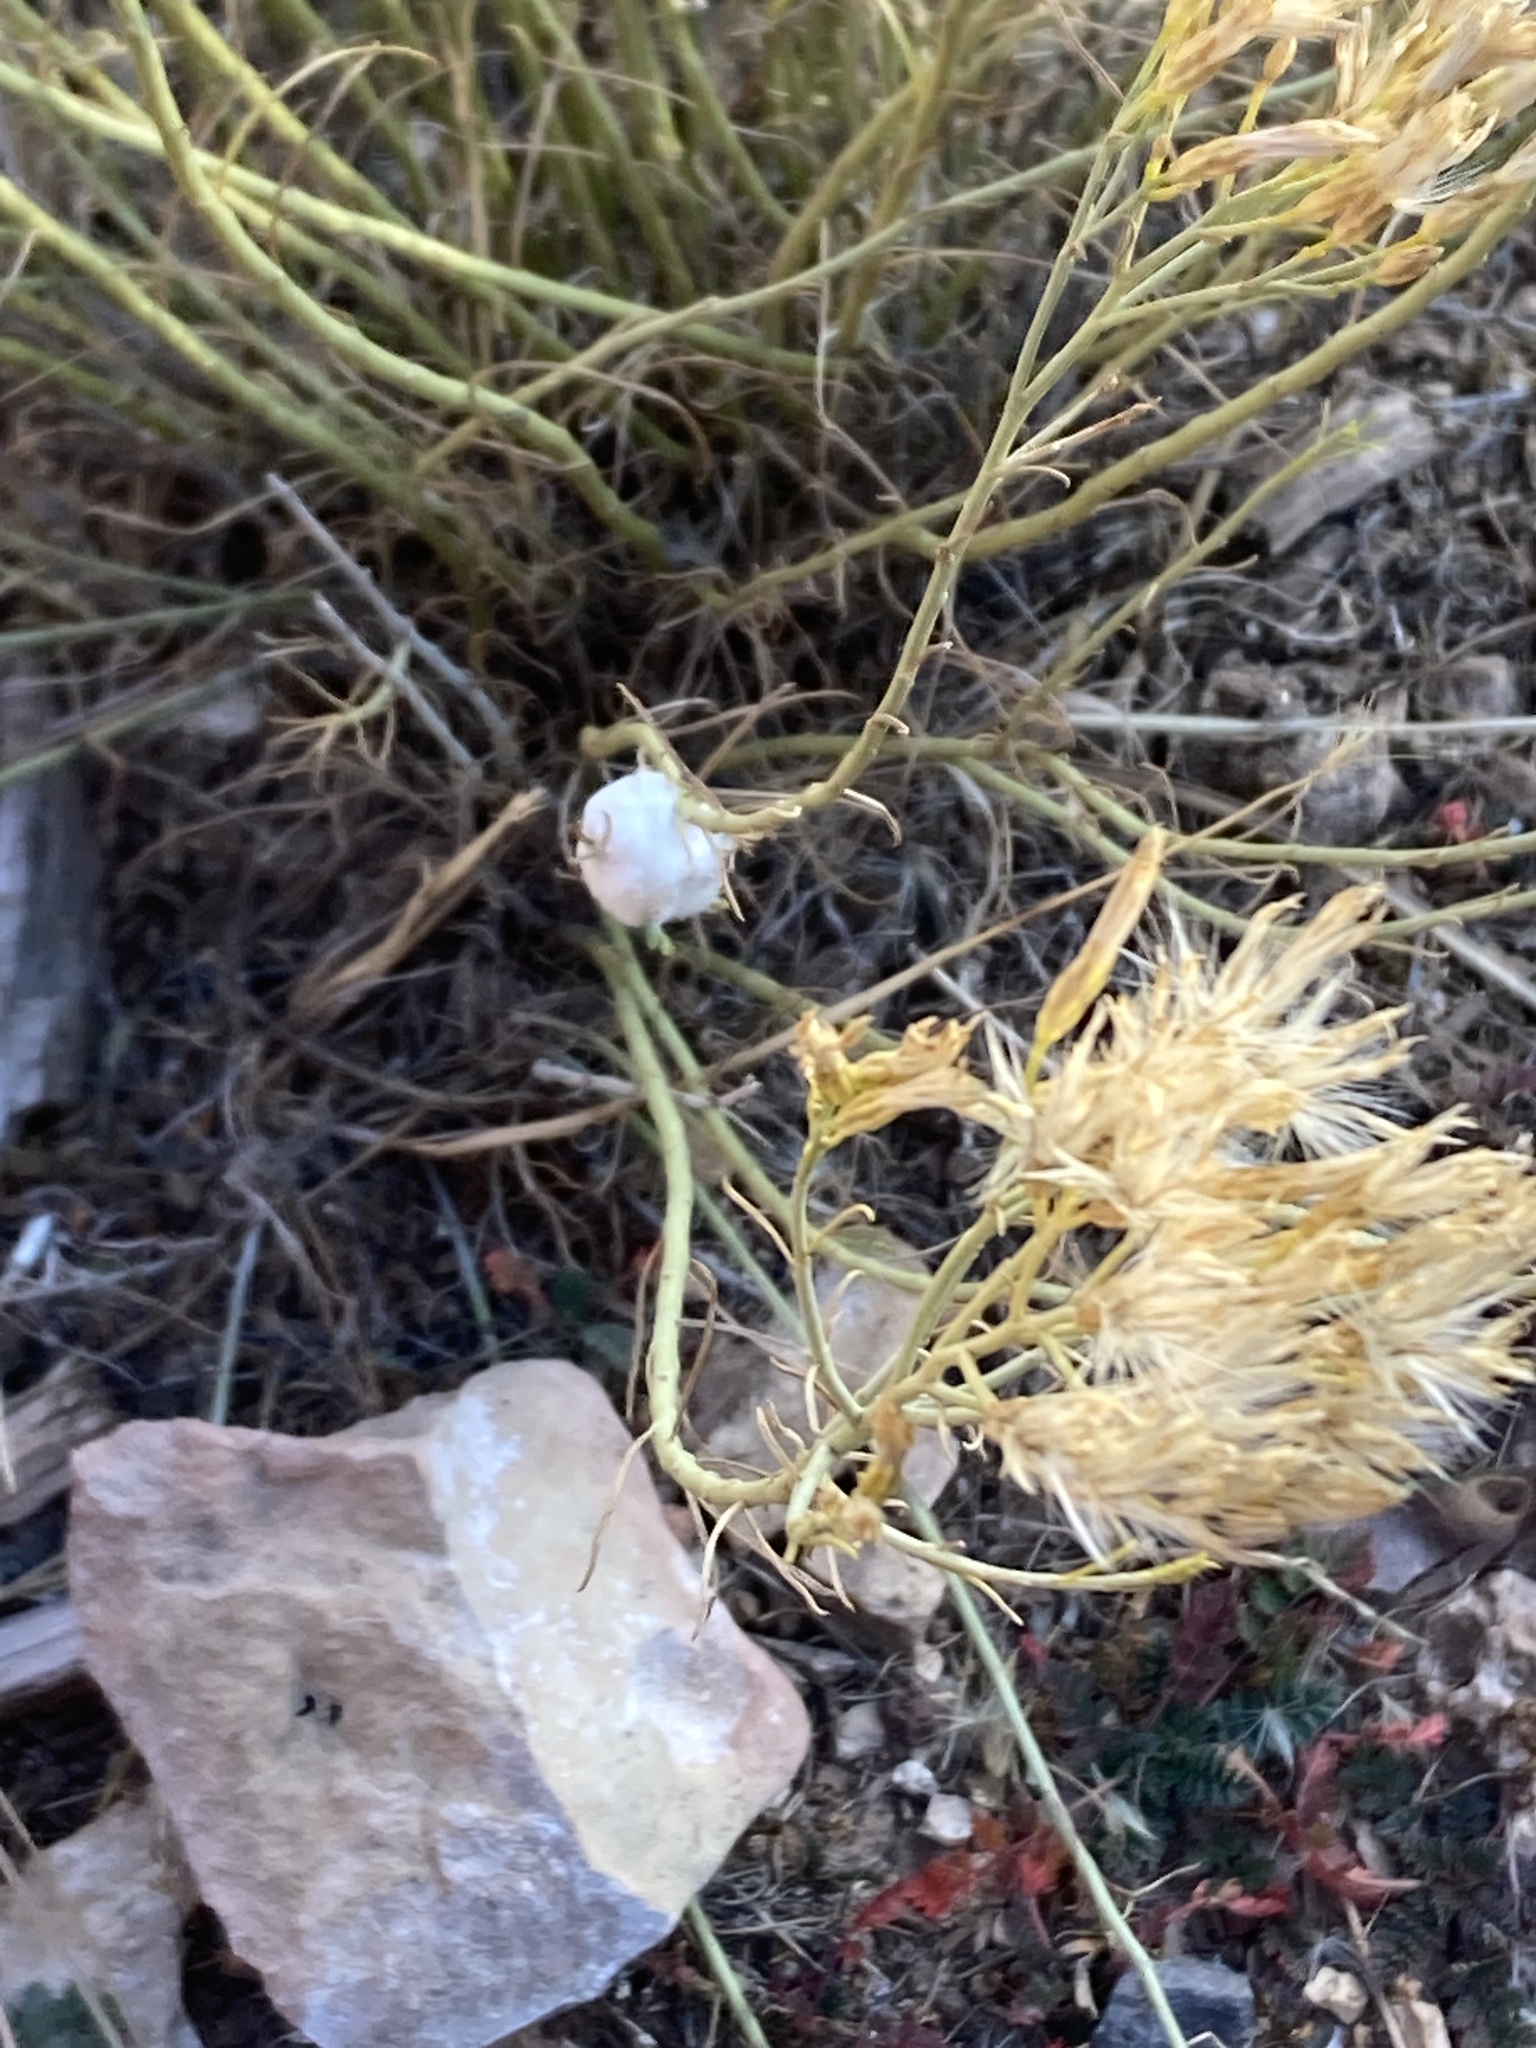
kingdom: Animalia
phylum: Arthropoda
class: Insecta
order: Diptera
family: Tephritidae
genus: Aciurina
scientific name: Aciurina bigeloviae
